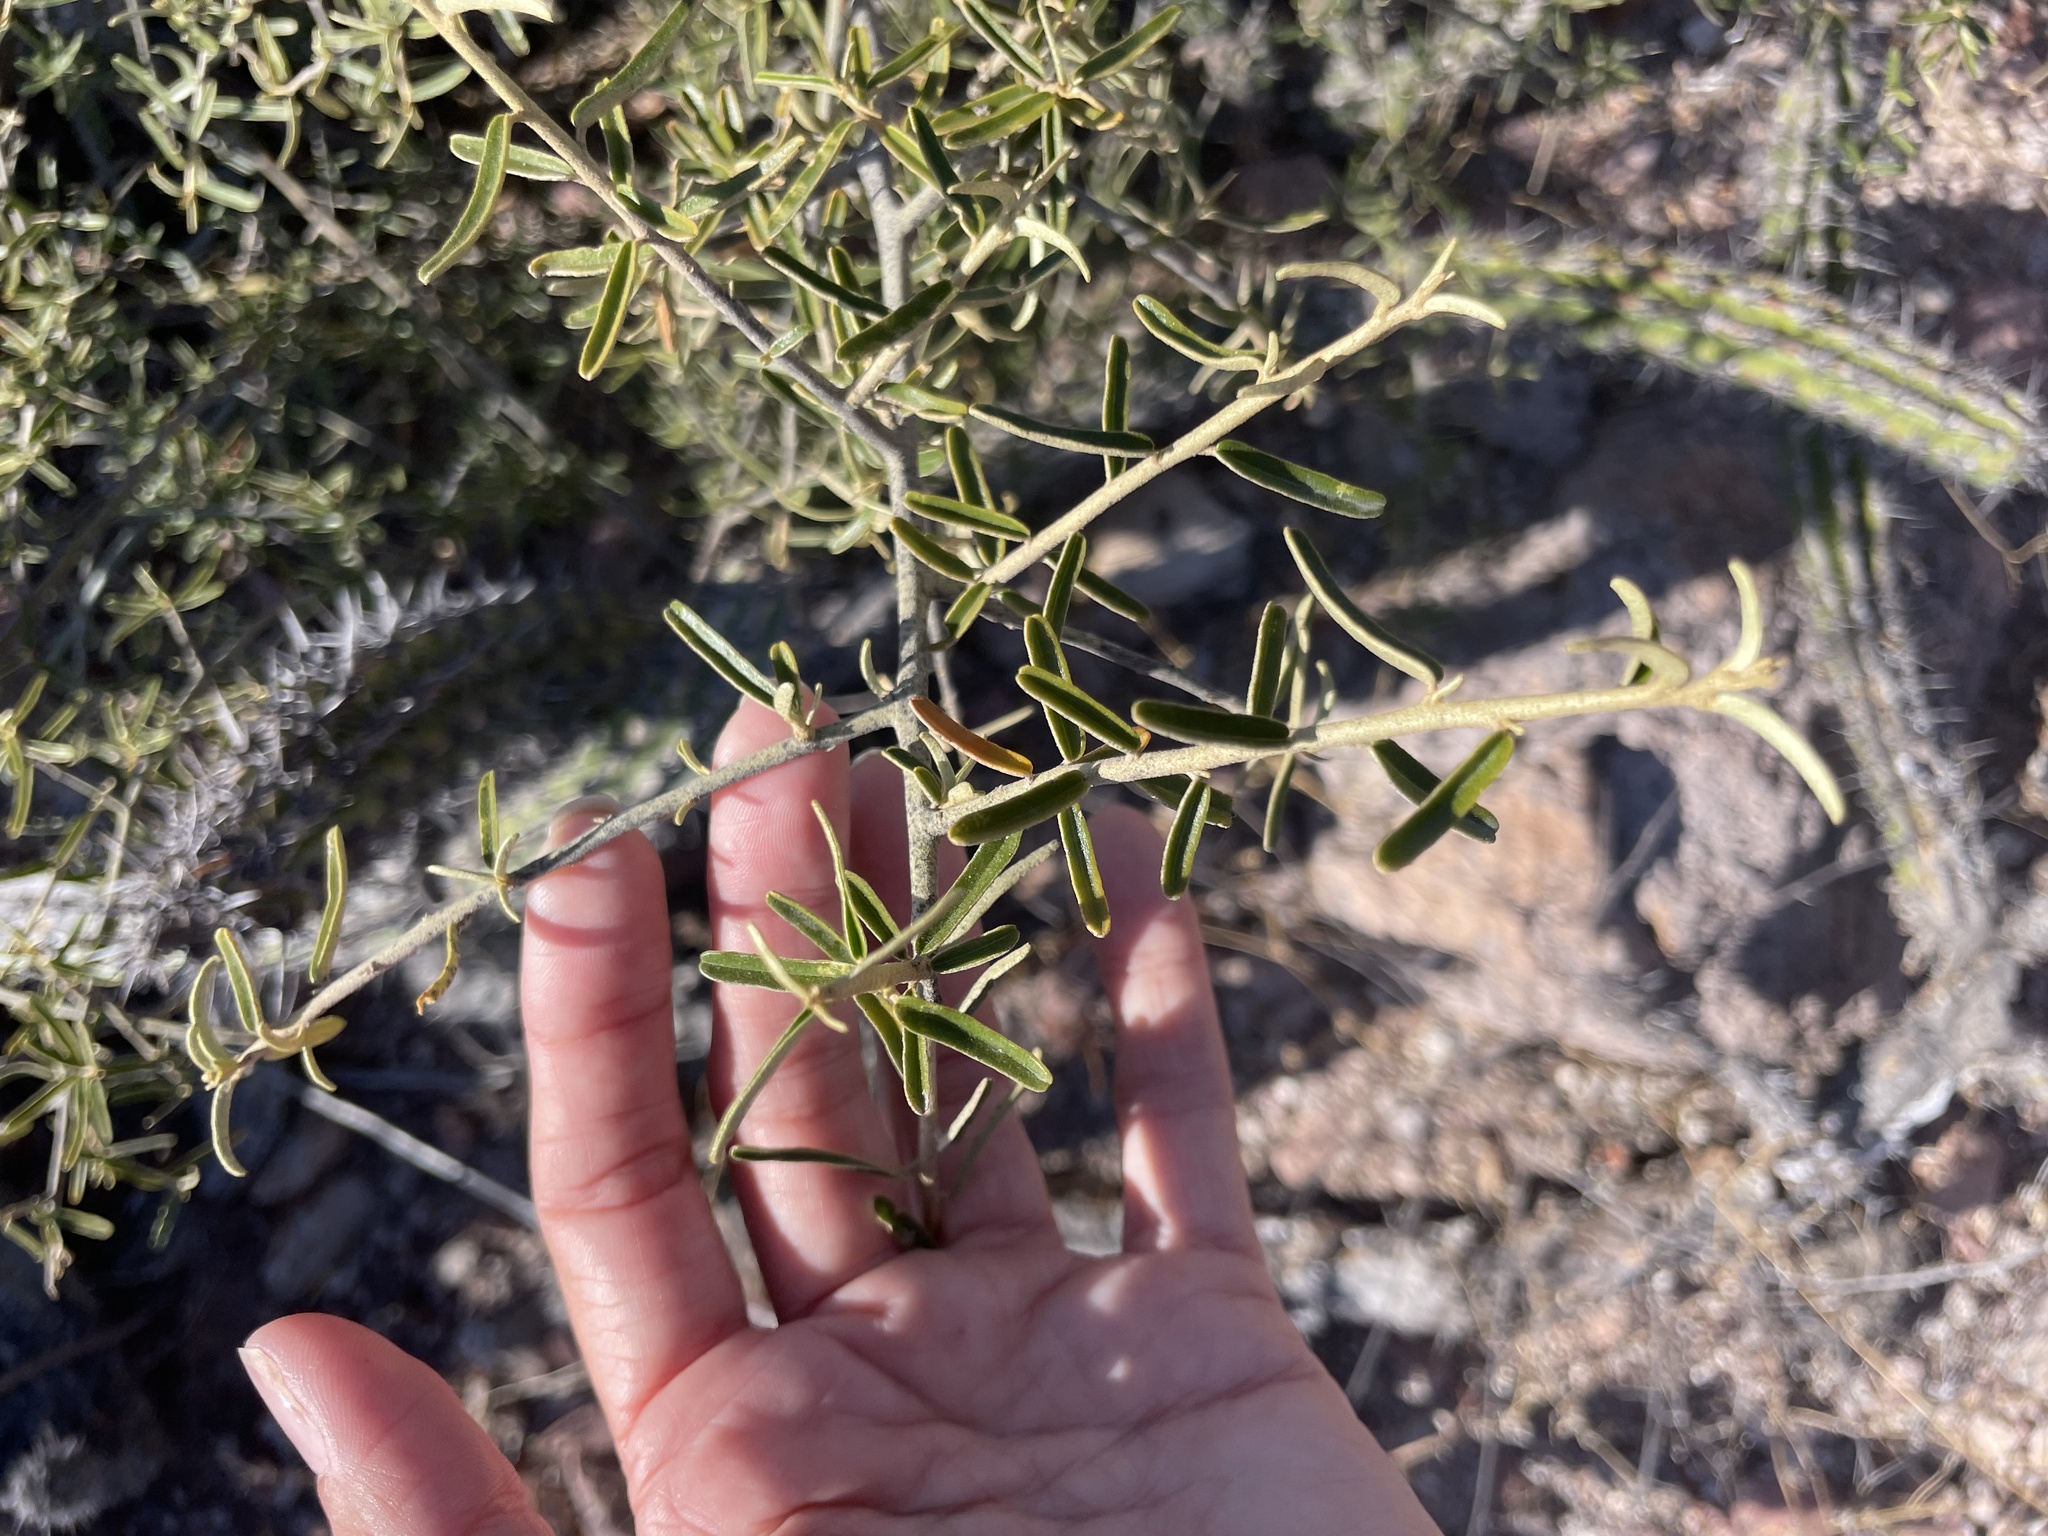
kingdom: Plantae
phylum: Tracheophyta
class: Magnoliopsida
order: Brassicales
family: Capparaceae
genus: Atamisquea
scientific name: Atamisquea emarginata
